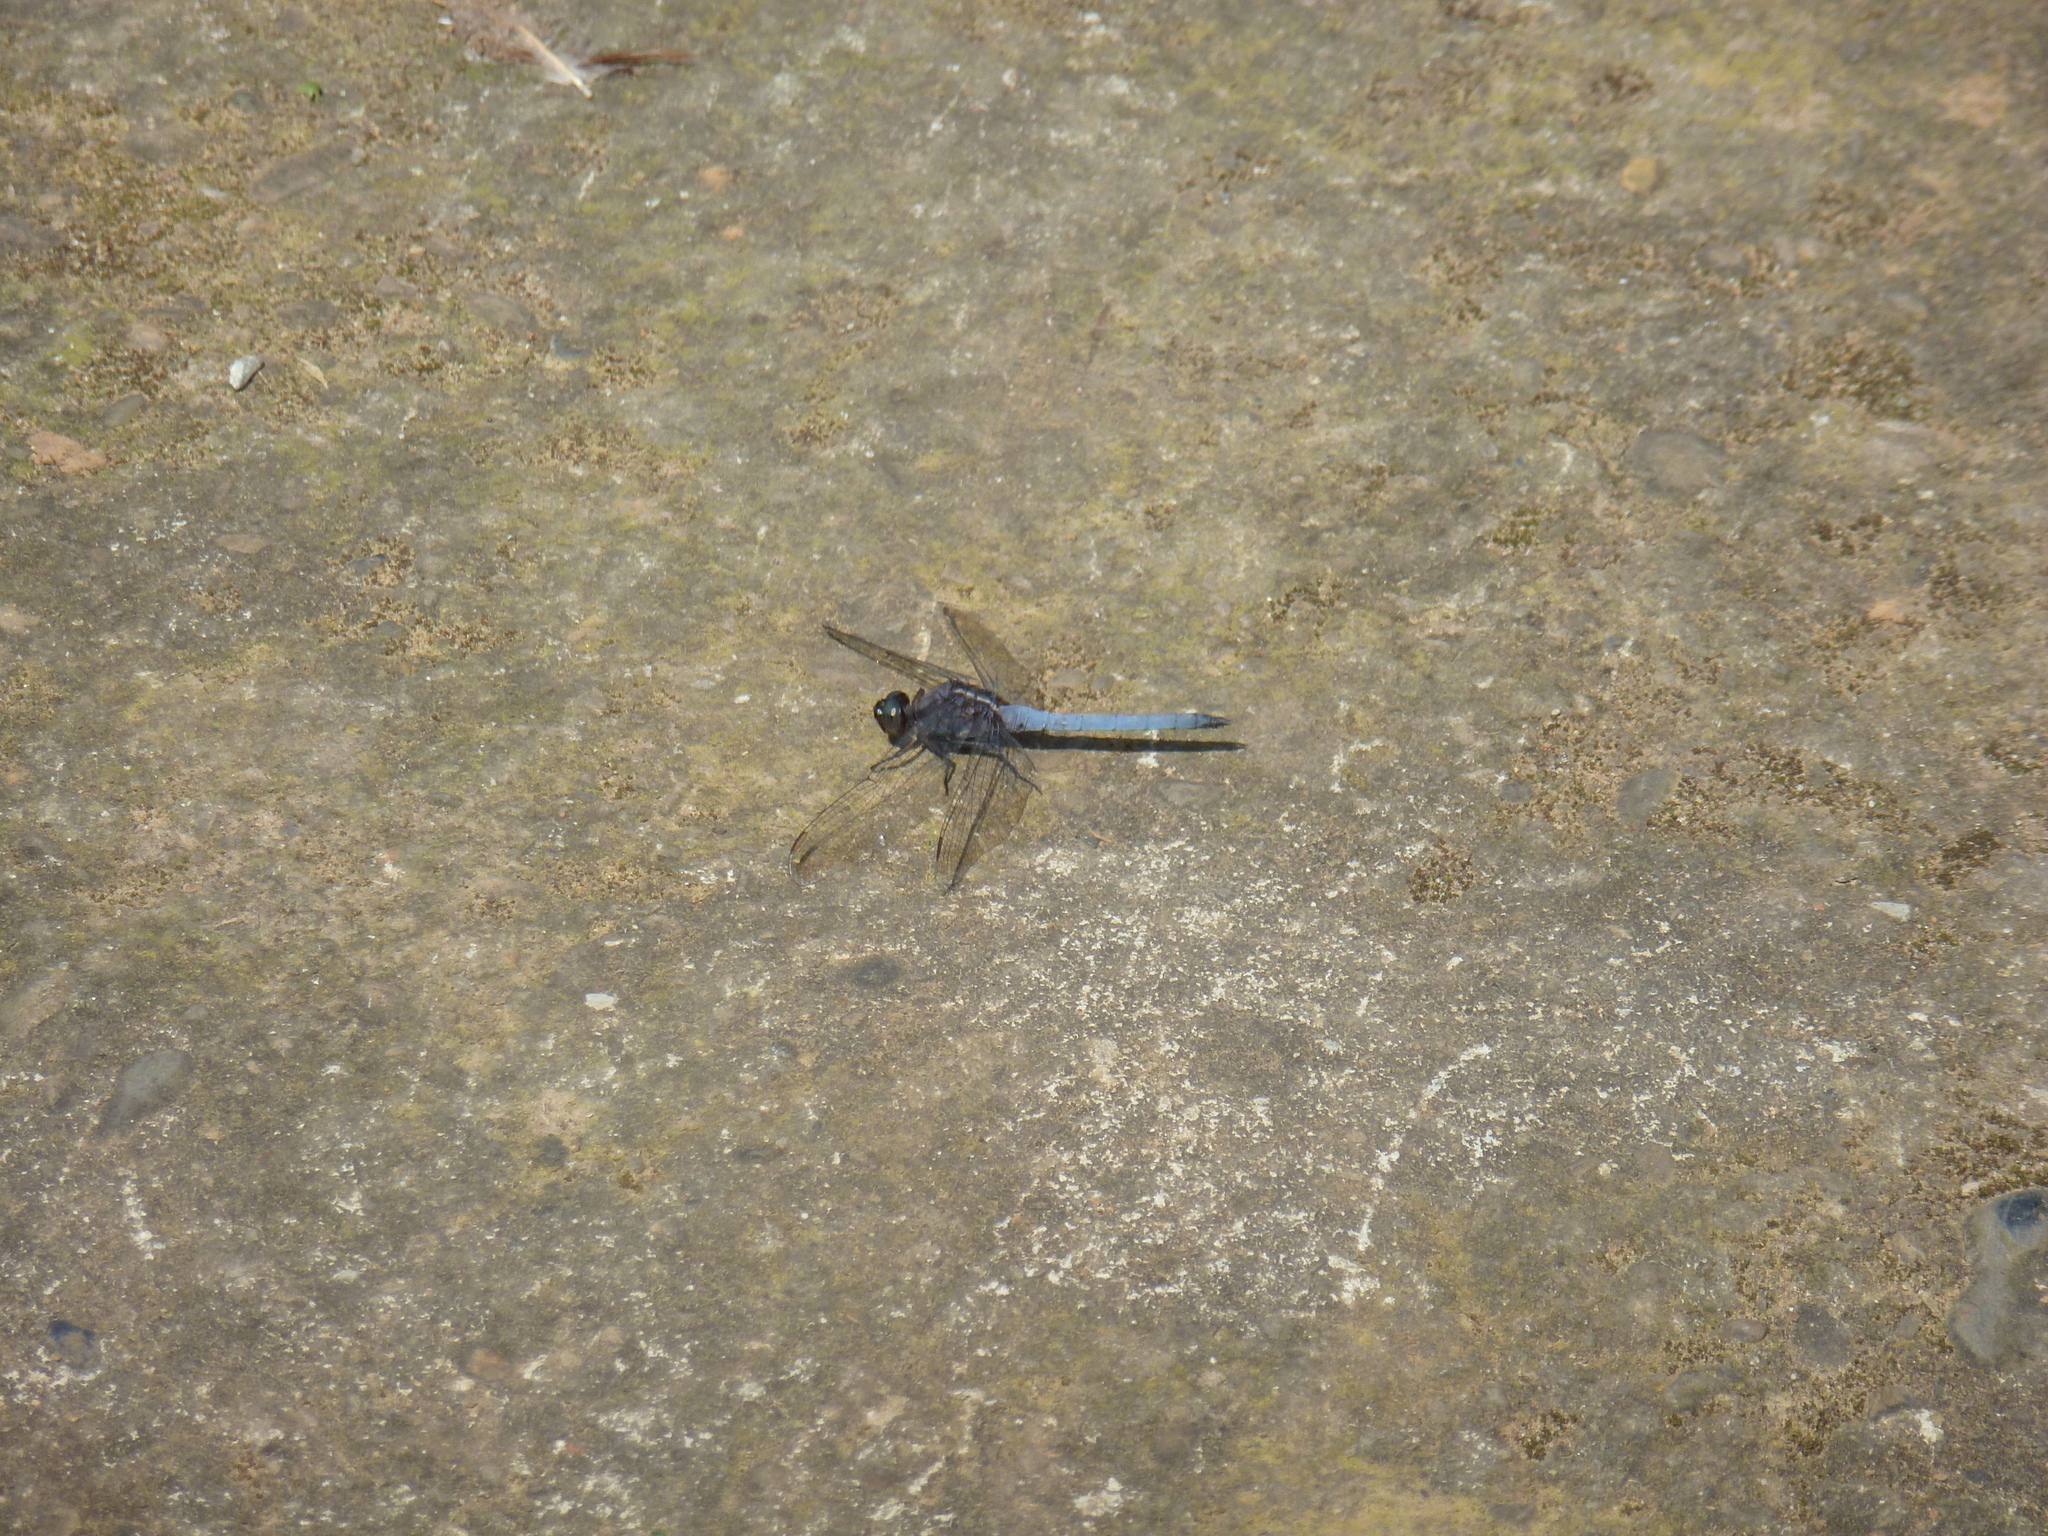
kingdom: Animalia
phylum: Arthropoda
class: Insecta
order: Odonata
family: Libellulidae
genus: Orthetrum
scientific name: Orthetrum glaucum
